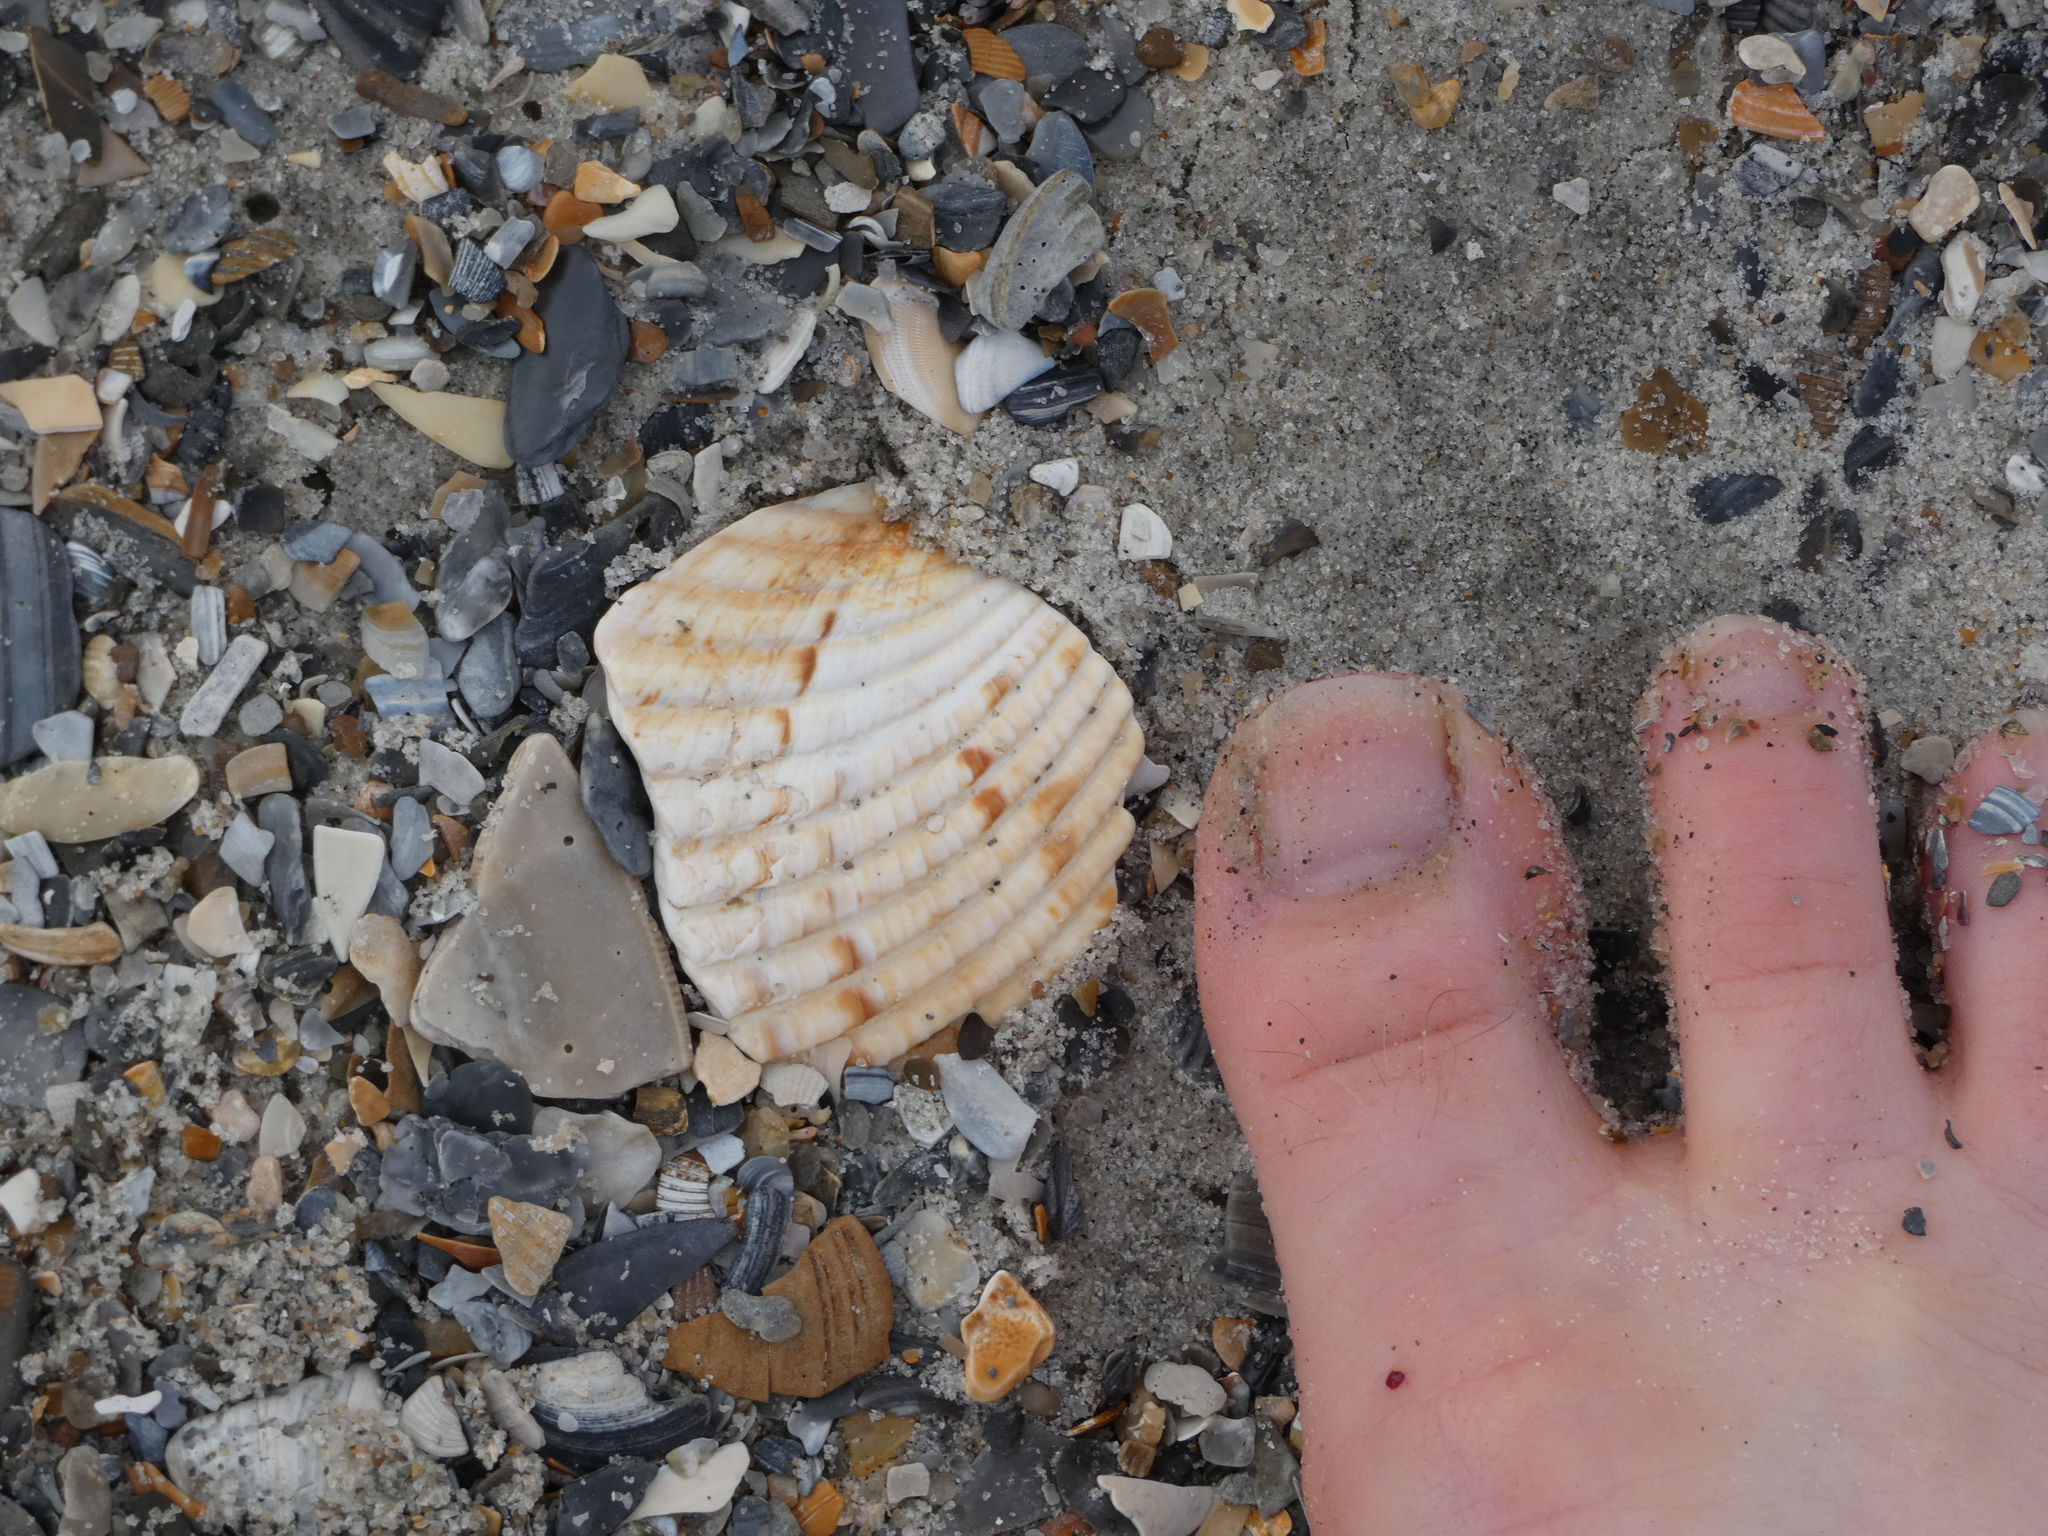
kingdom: Animalia
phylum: Mollusca
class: Bivalvia
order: Cardiida
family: Cardiidae
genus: Dinocardium
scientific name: Dinocardium robustum
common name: Atlantic giant cockle
